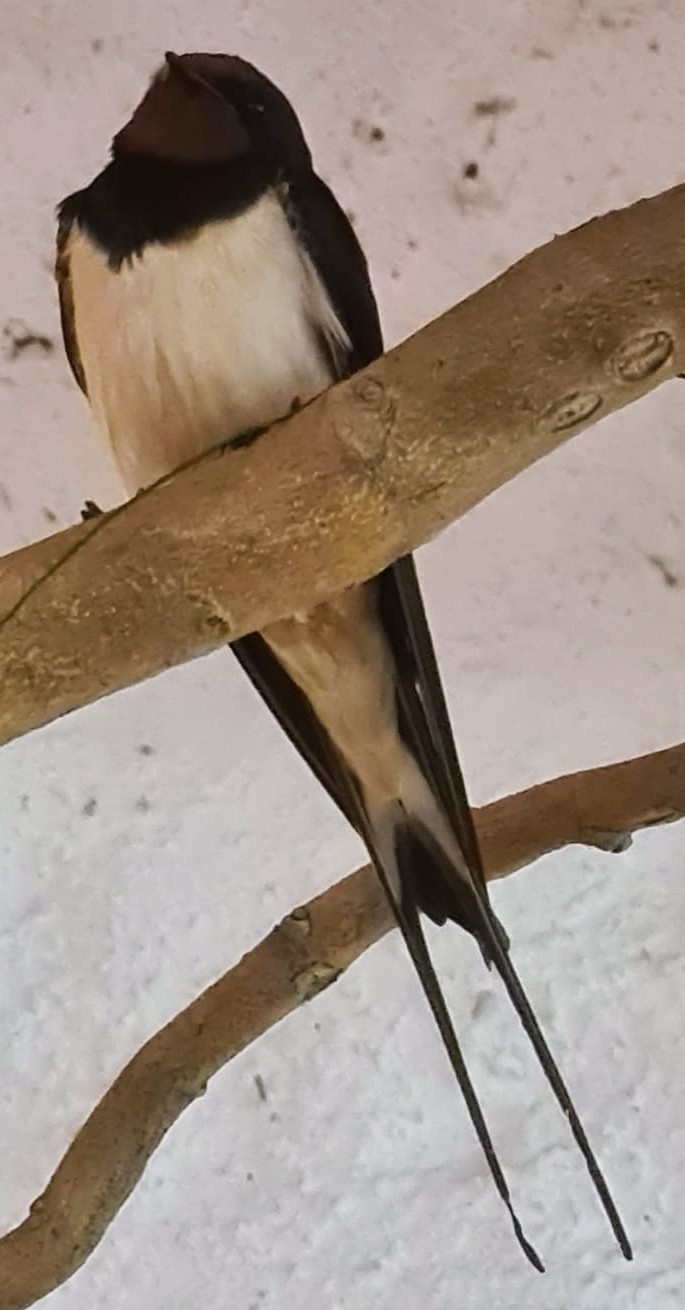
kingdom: Animalia
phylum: Chordata
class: Aves
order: Passeriformes
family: Hirundinidae
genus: Hirundo
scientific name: Hirundo rustica
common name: Barn swallow
